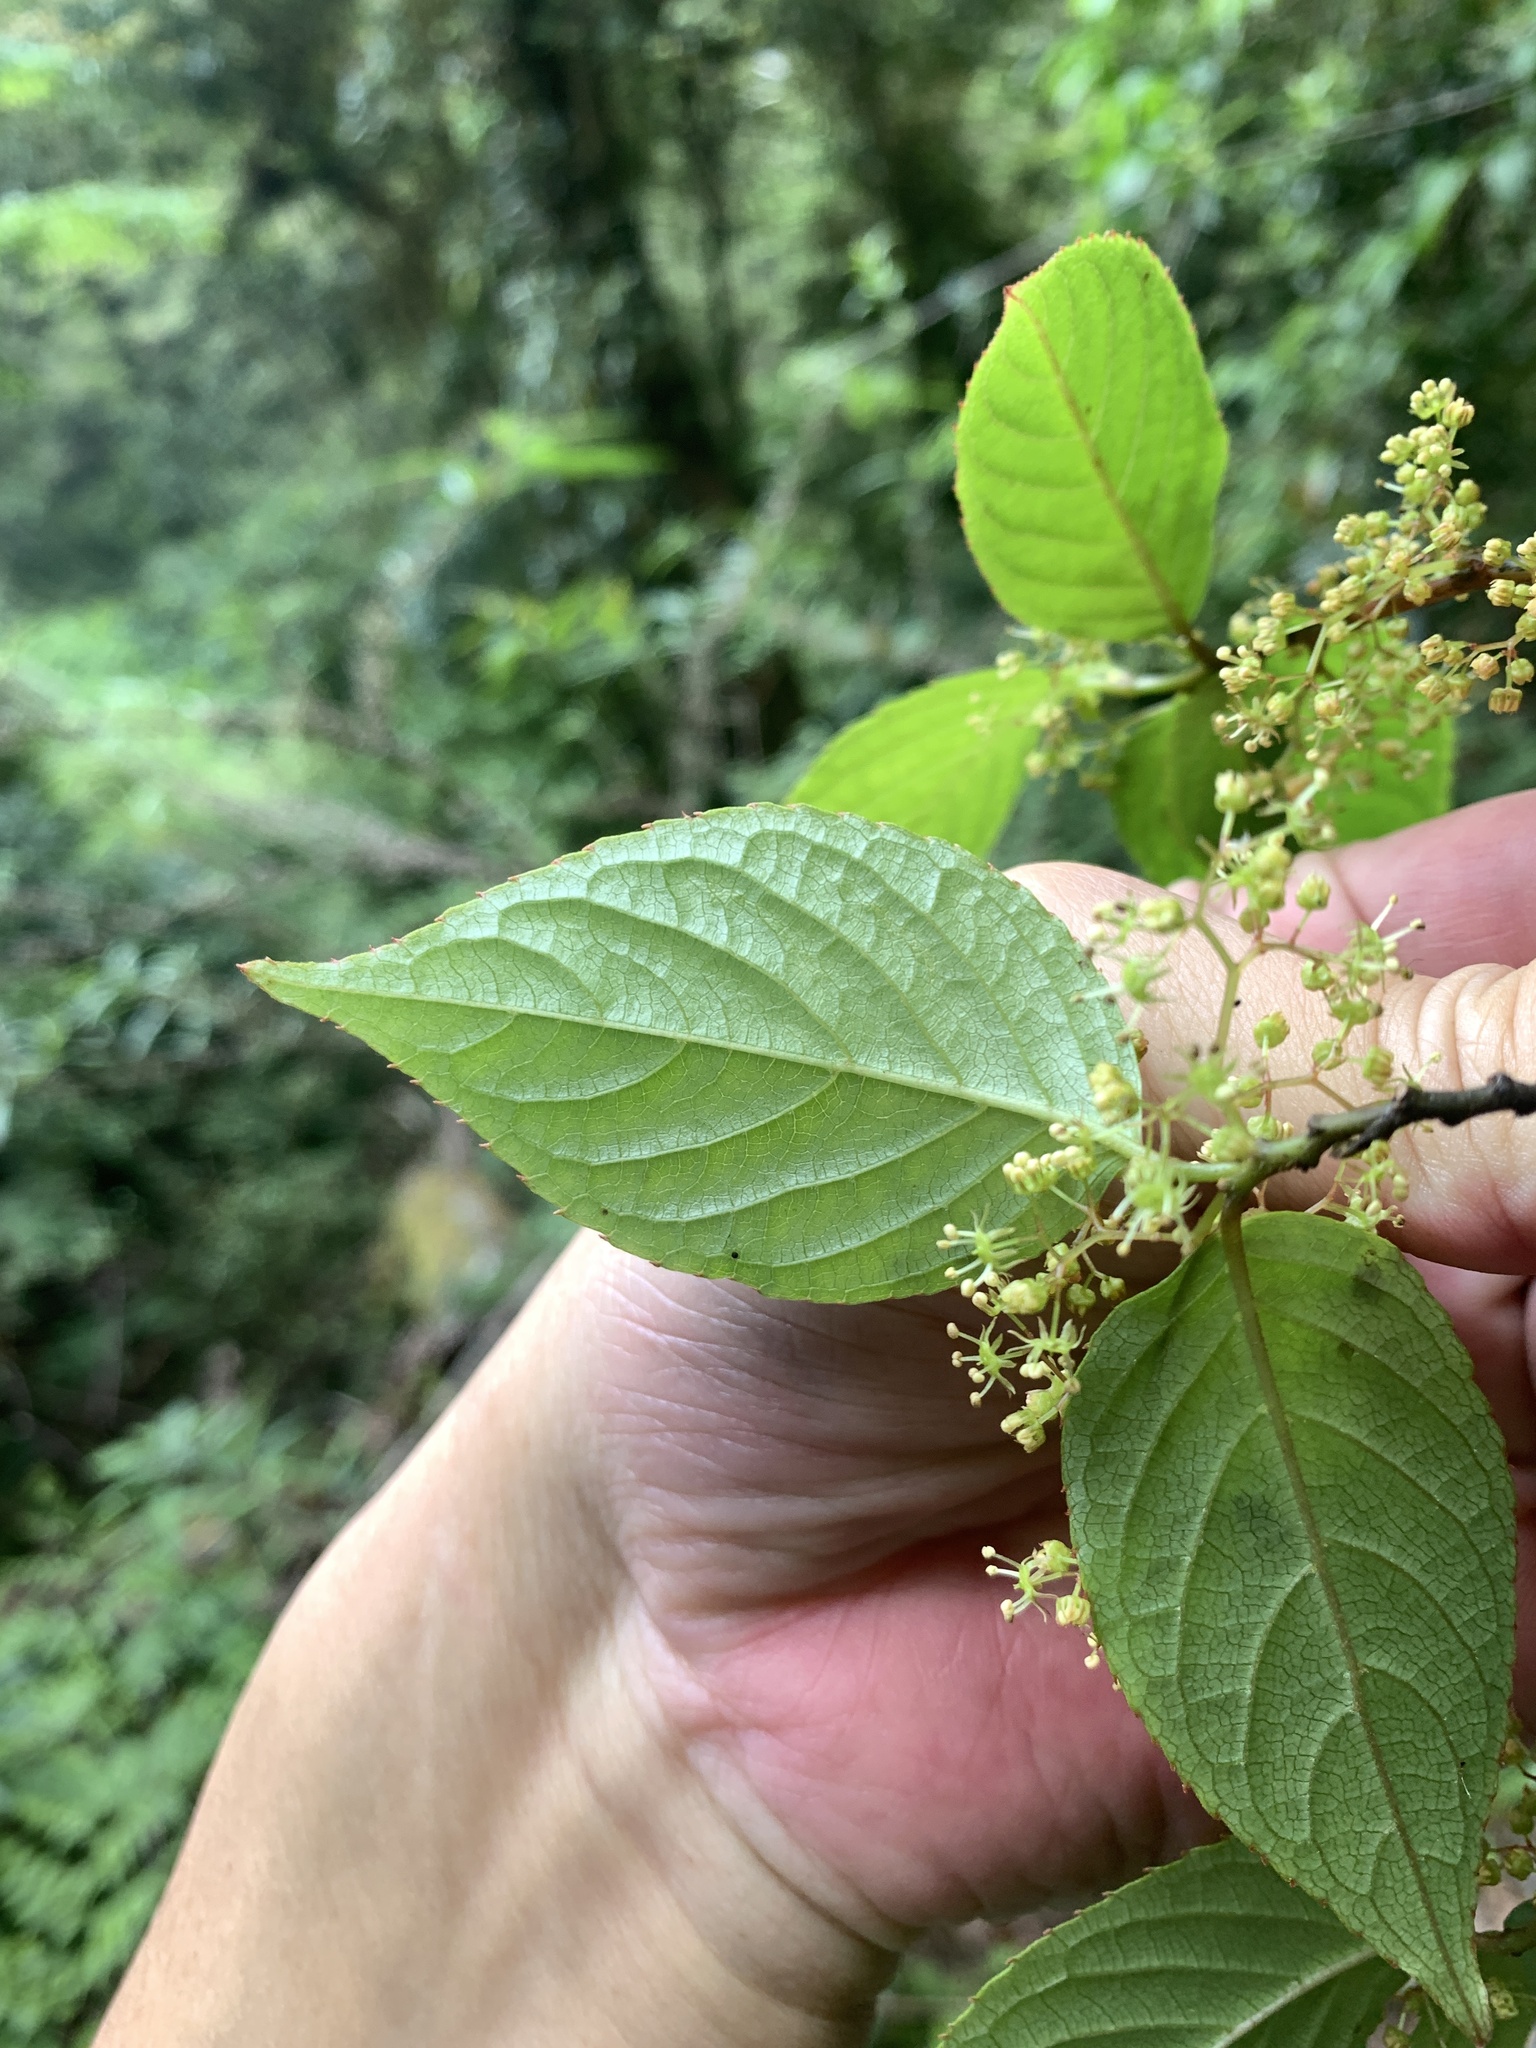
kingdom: Plantae
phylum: Tracheophyta
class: Magnoliopsida
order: Huerteales
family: Dipentodontaceae
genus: Perrottetia
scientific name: Perrottetia arisanensis
